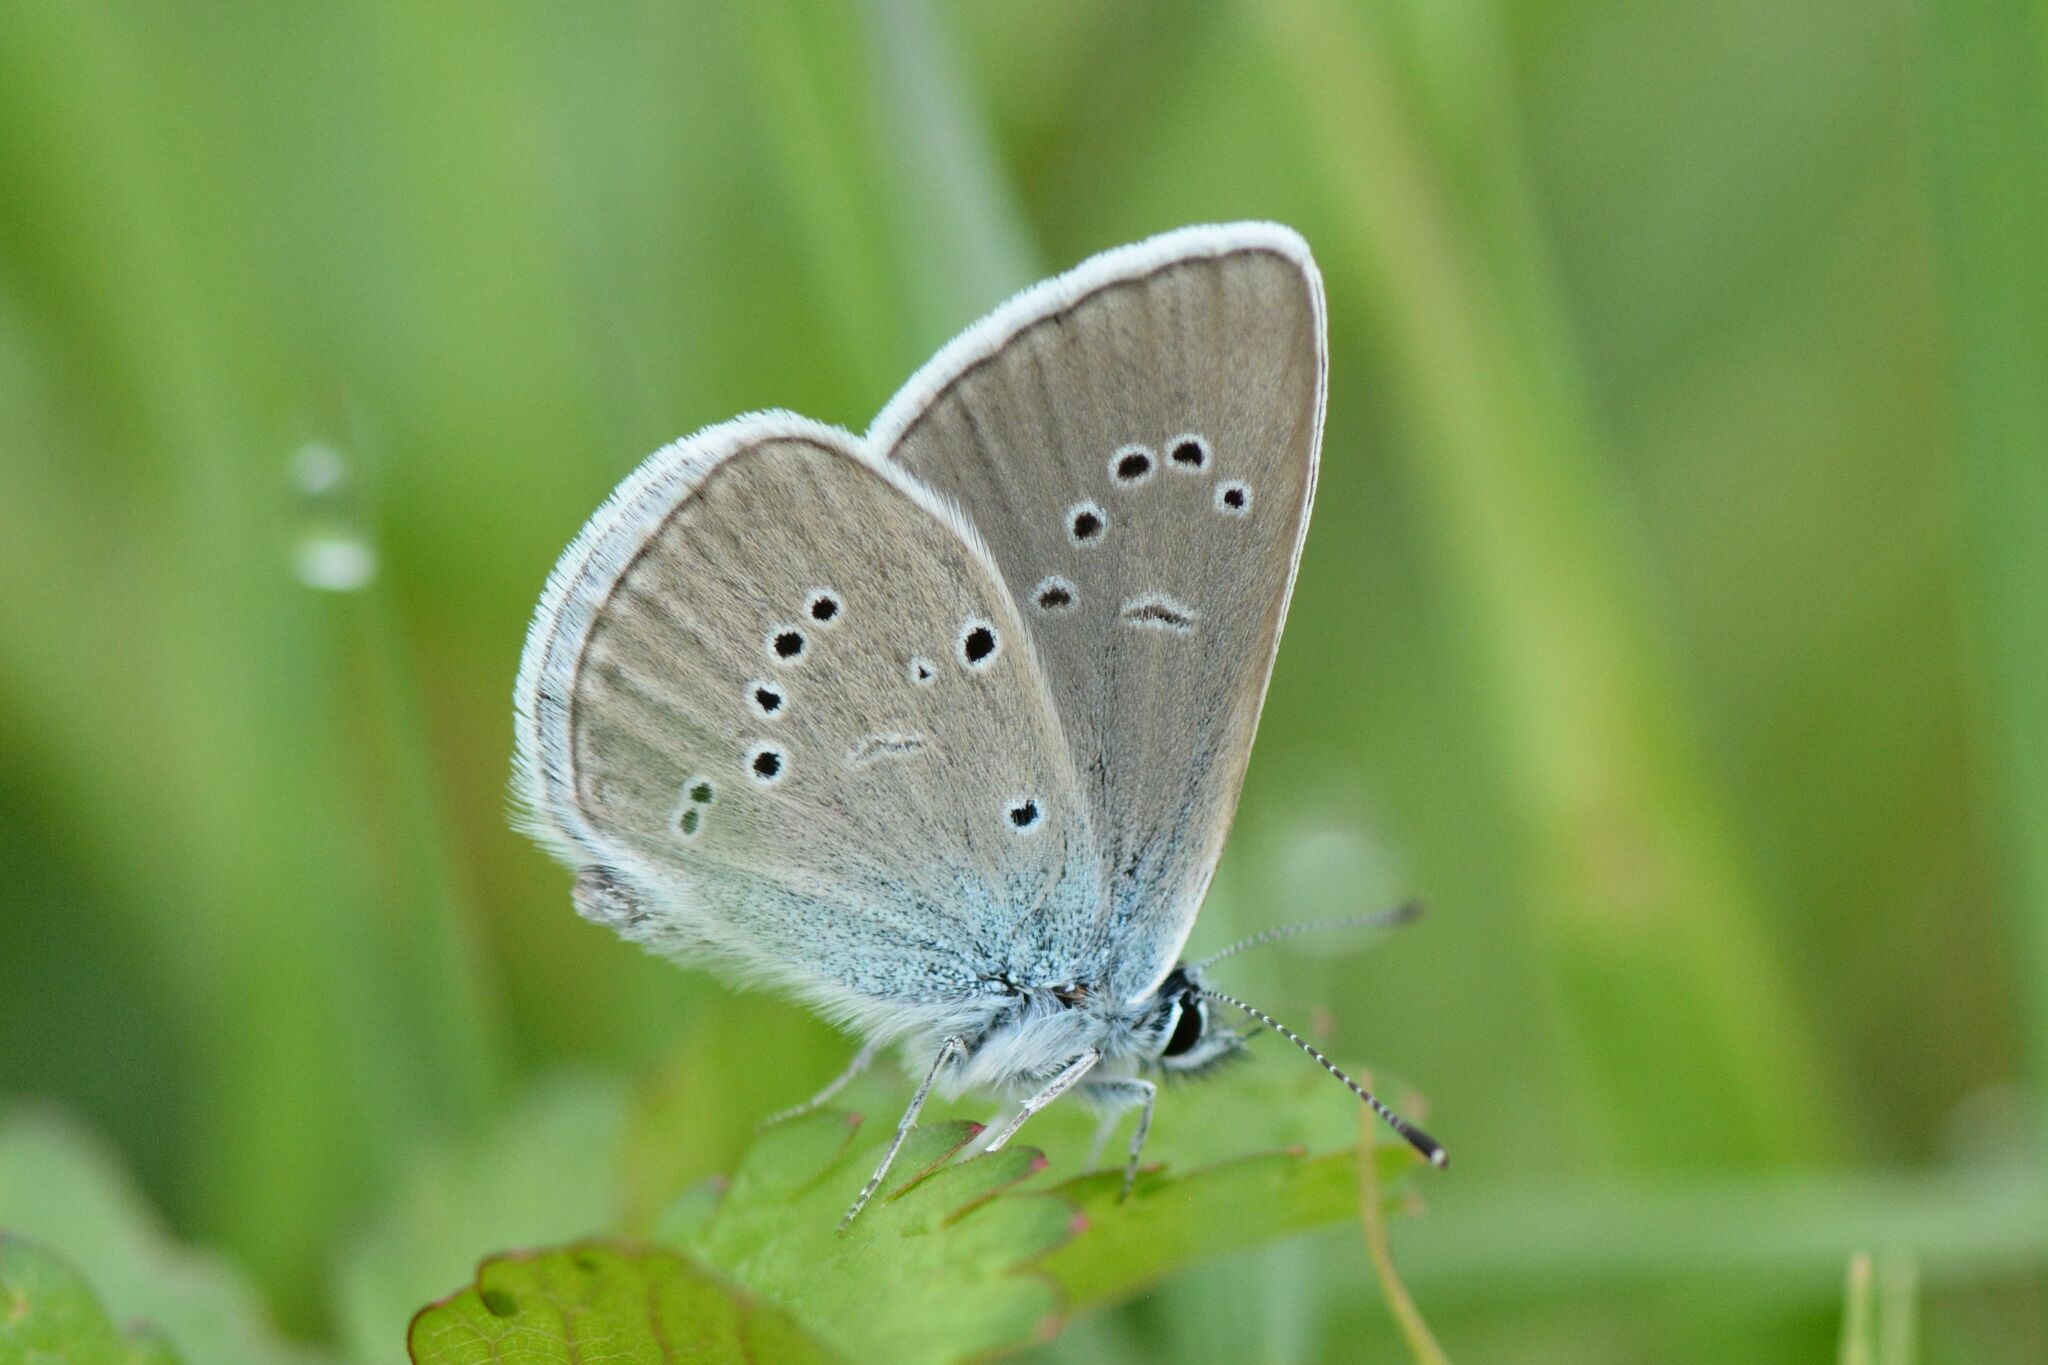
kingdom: Animalia
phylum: Arthropoda
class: Insecta
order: Lepidoptera
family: Lycaenidae
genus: Cyaniris
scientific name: Cyaniris semiargus
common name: Mazarine blue
